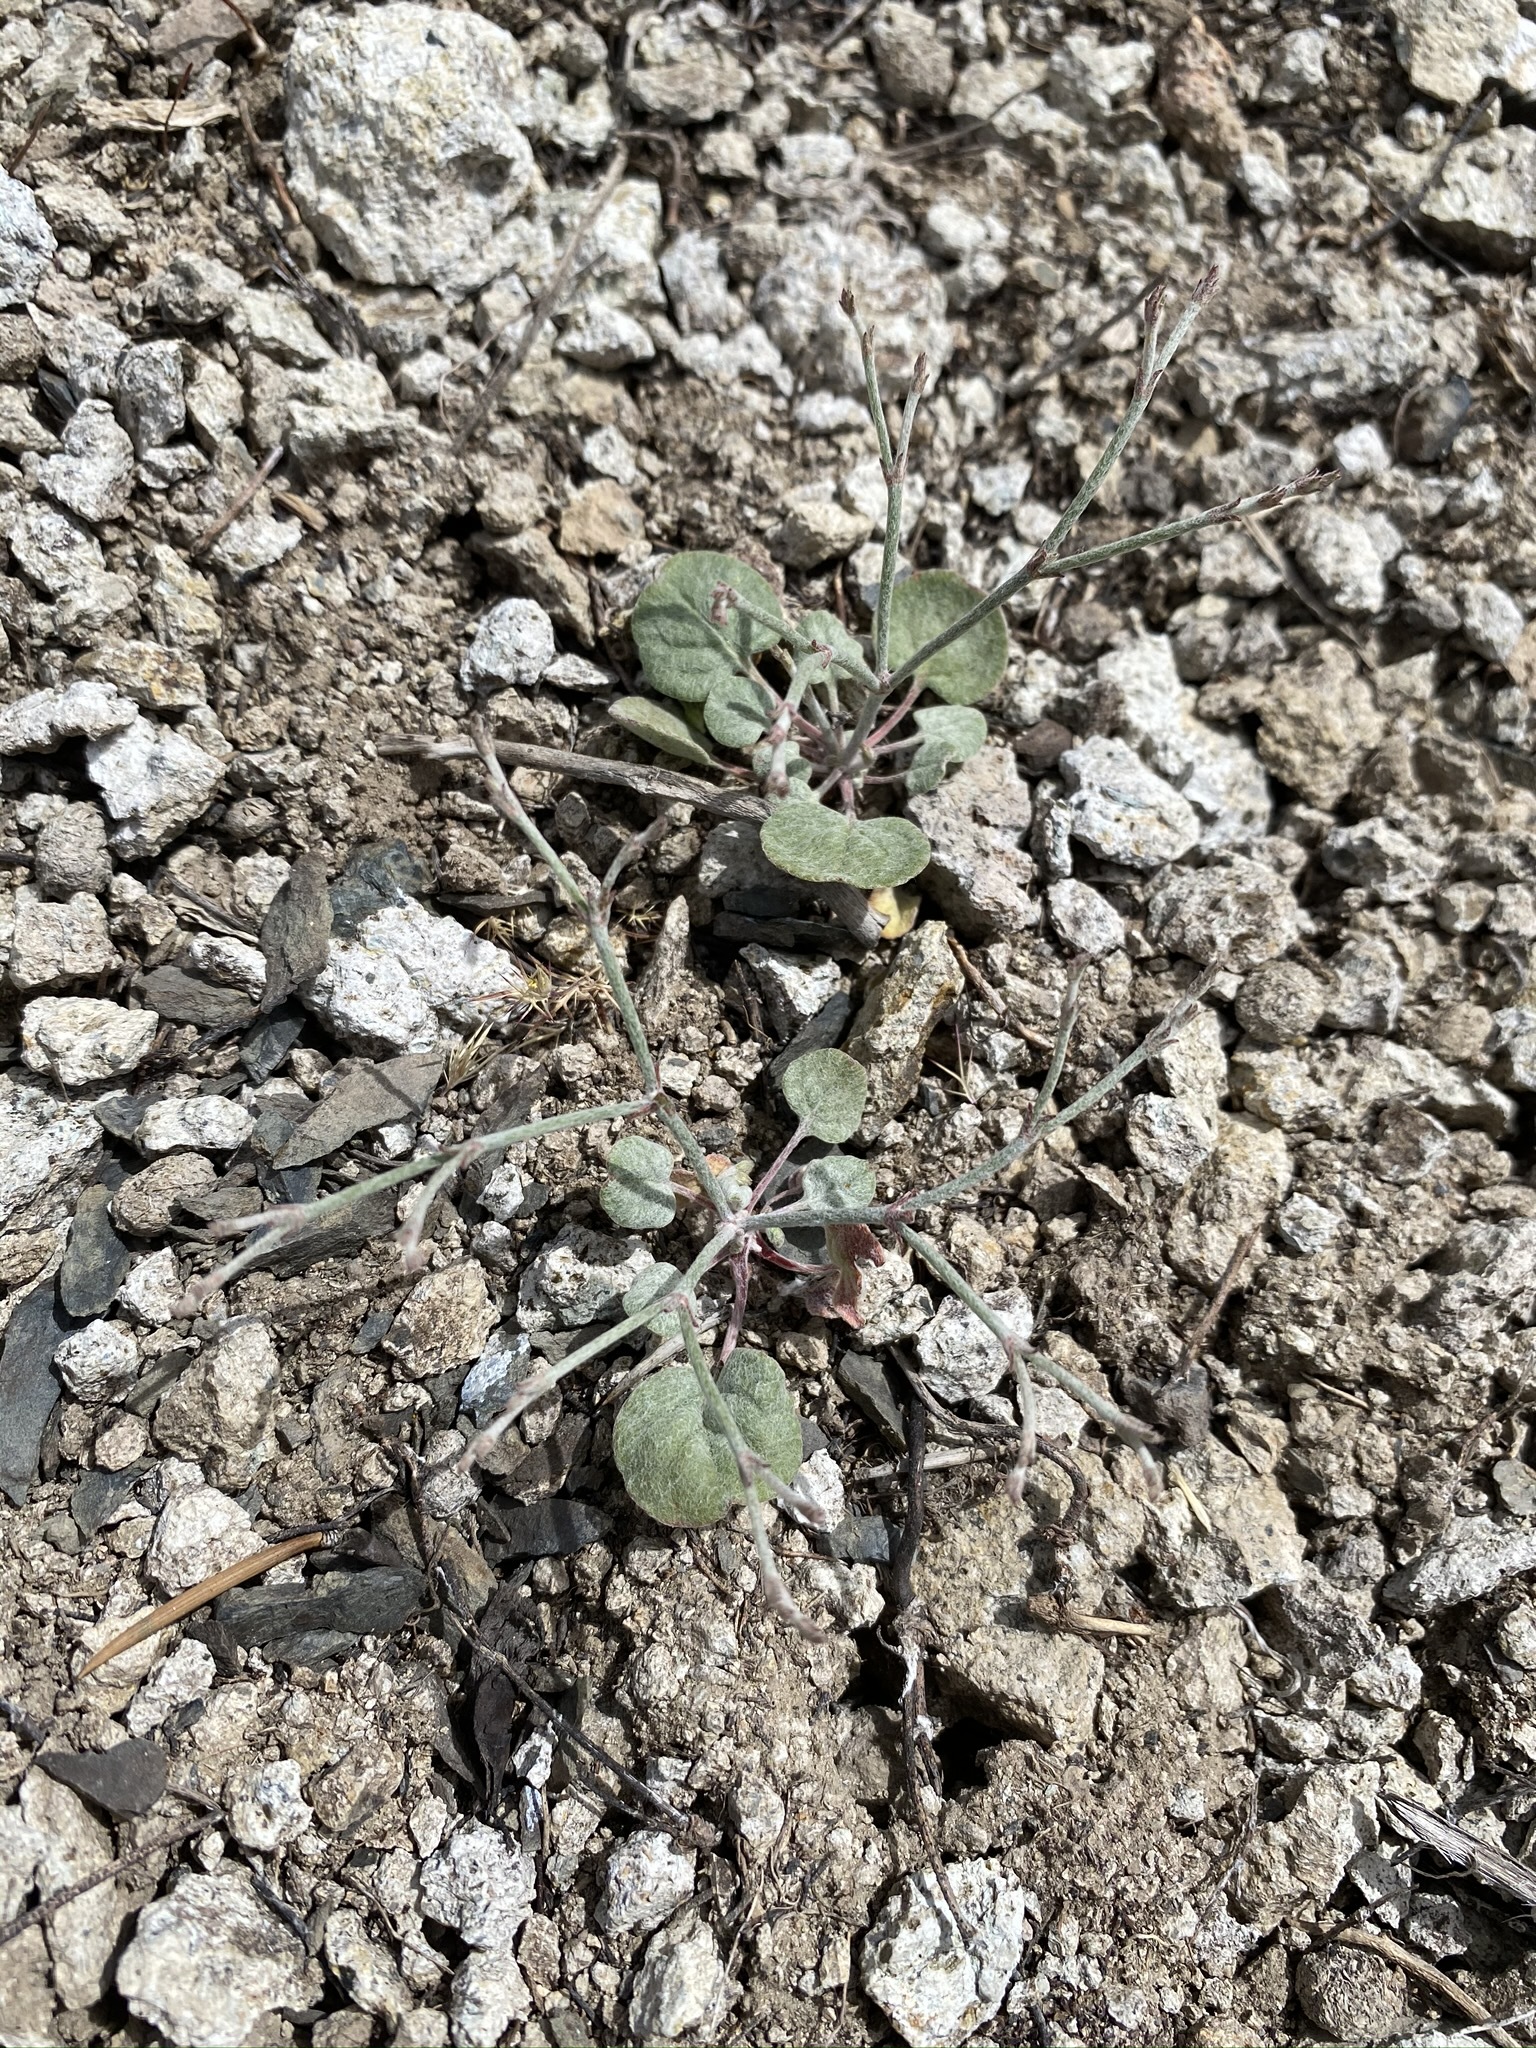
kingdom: Plantae
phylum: Tracheophyta
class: Magnoliopsida
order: Caryophyllales
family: Polygonaceae
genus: Eriogonum
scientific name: Eriogonum palmerianum
